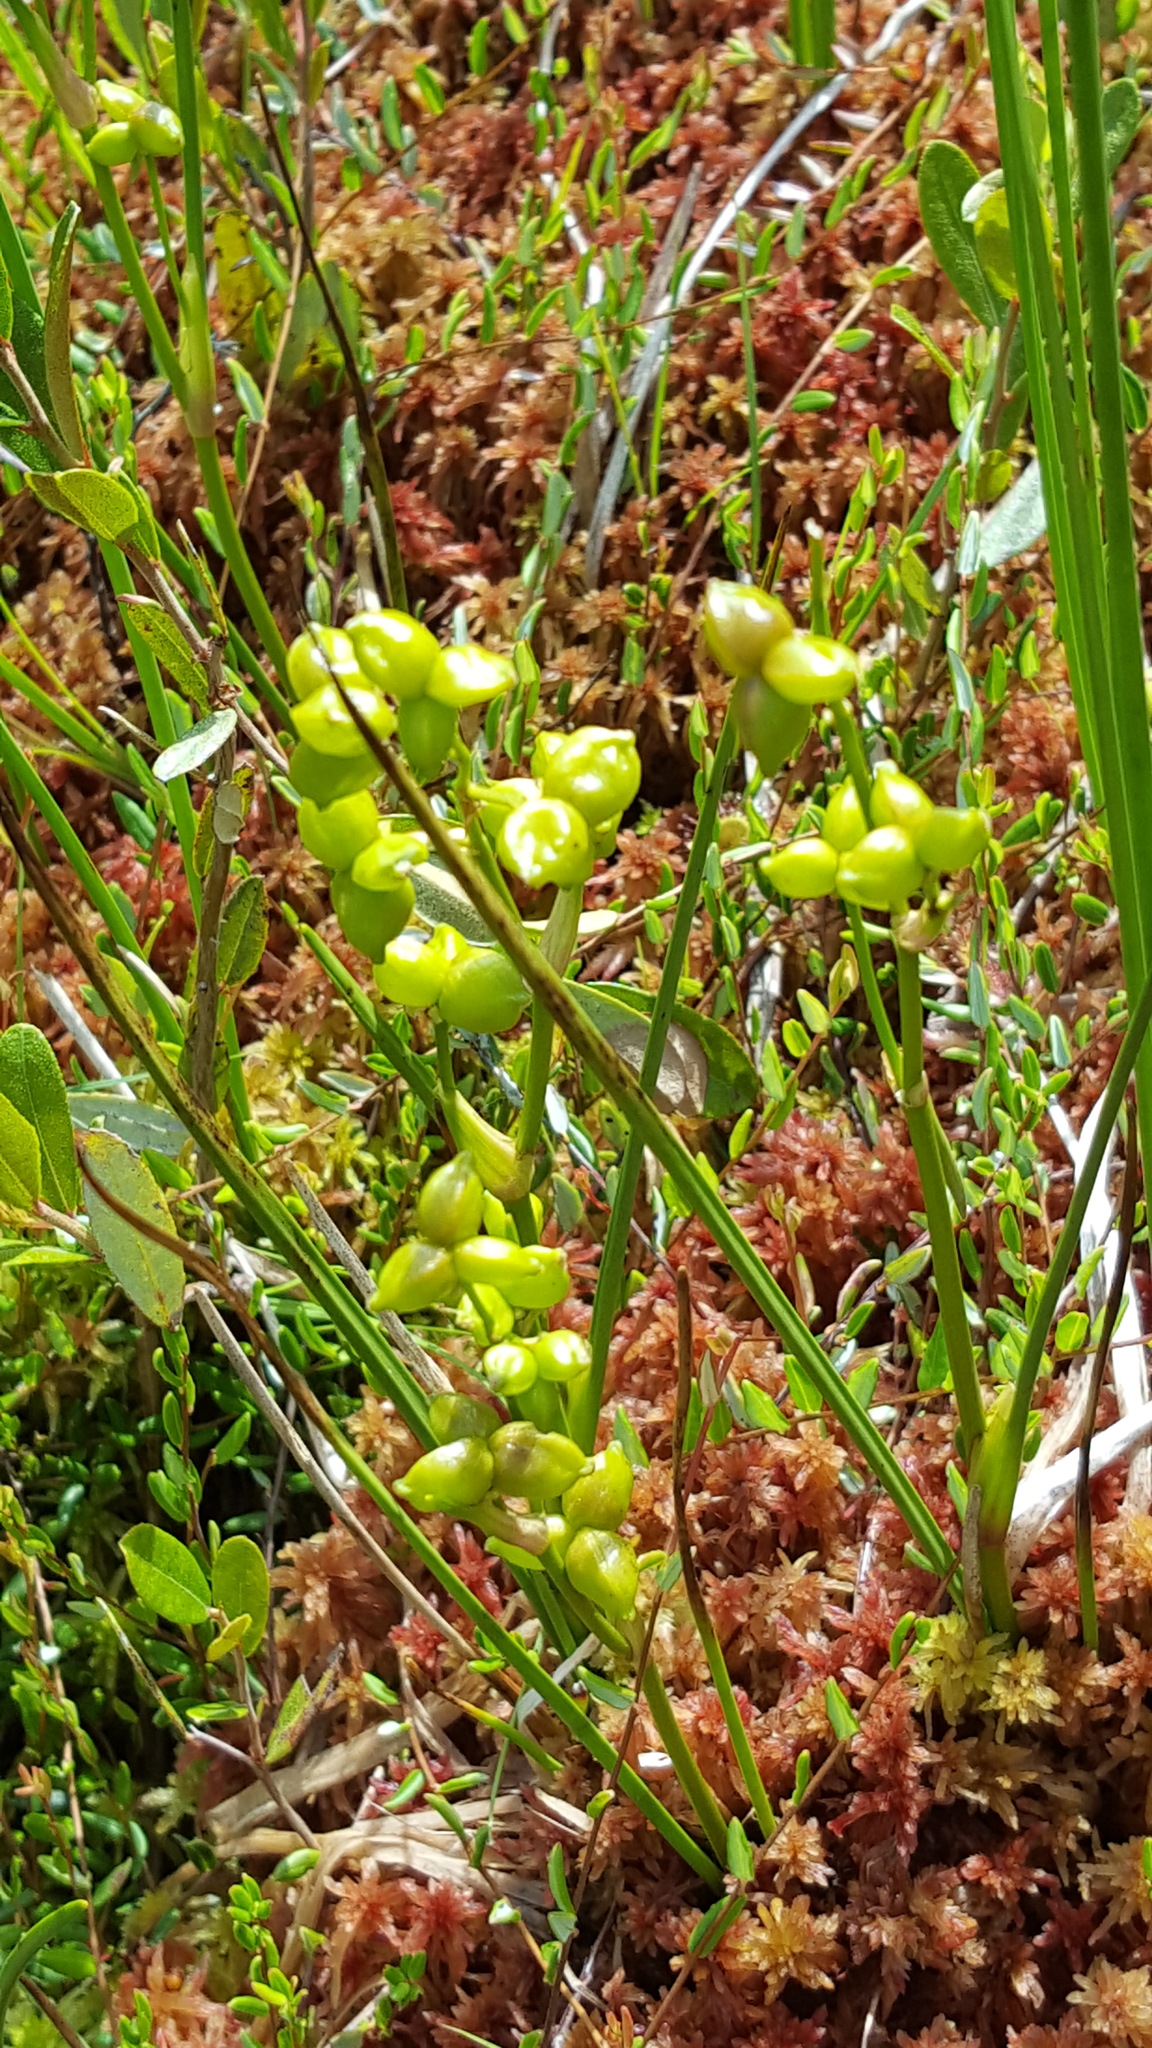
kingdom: Plantae
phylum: Tracheophyta
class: Liliopsida
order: Alismatales
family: Scheuchzeriaceae
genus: Scheuchzeria
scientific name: Scheuchzeria palustris
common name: Rannoch-rush
